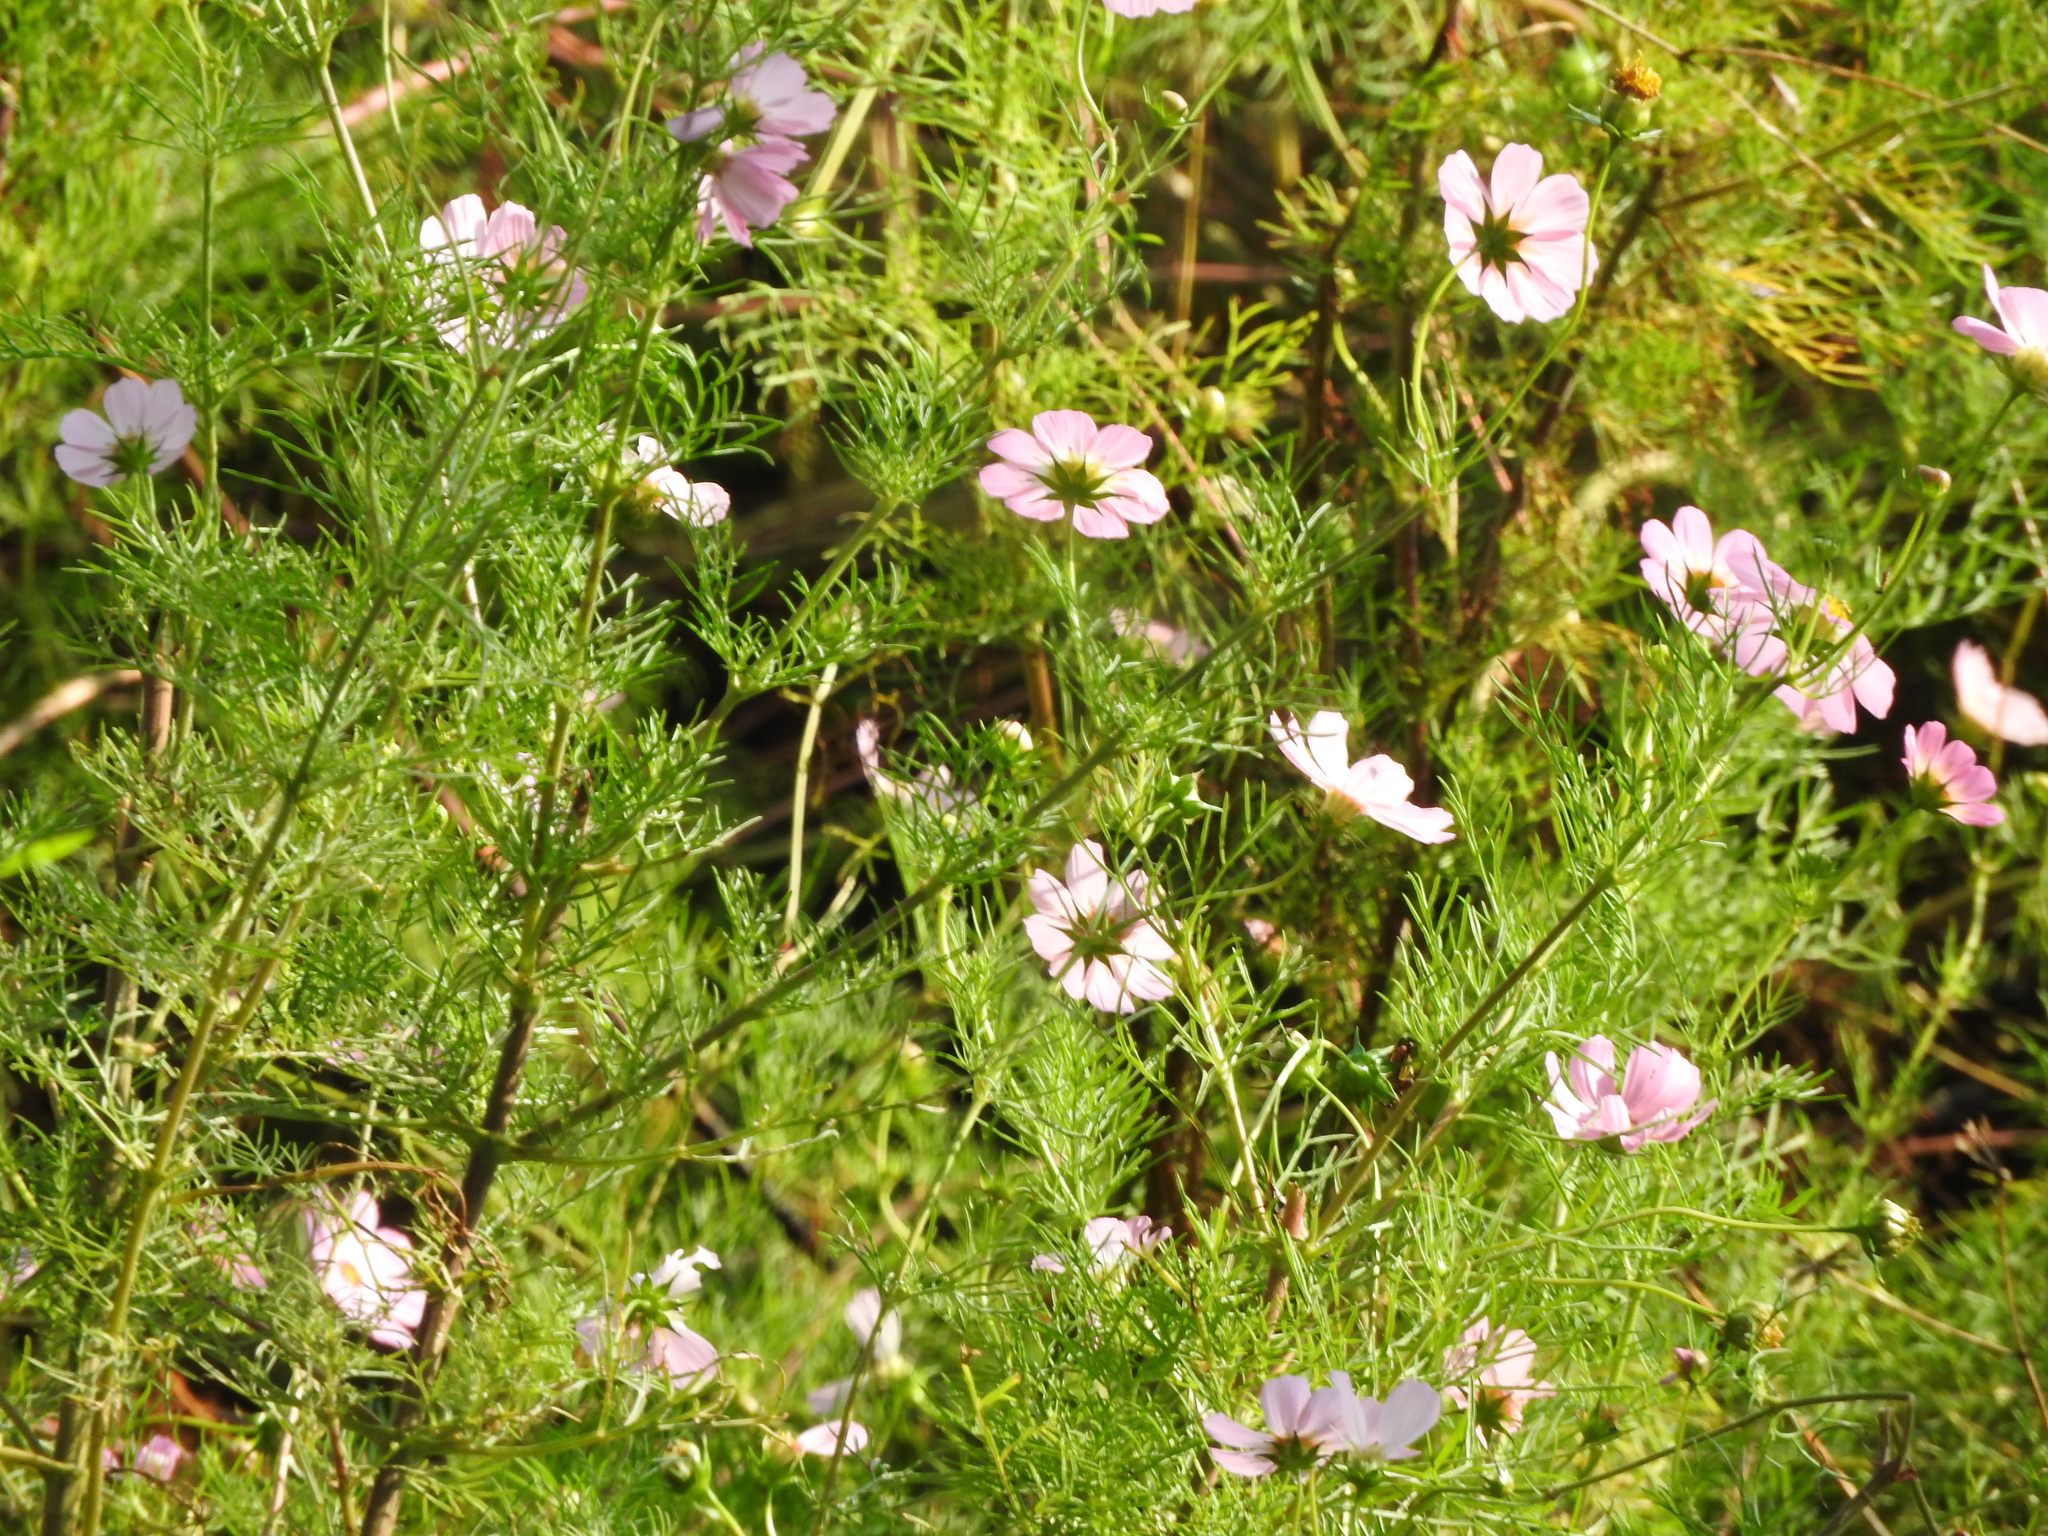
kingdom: Plantae
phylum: Tracheophyta
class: Magnoliopsida
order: Asterales
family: Asteraceae
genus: Cosmos
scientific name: Cosmos bipinnatus
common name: Garden cosmos
